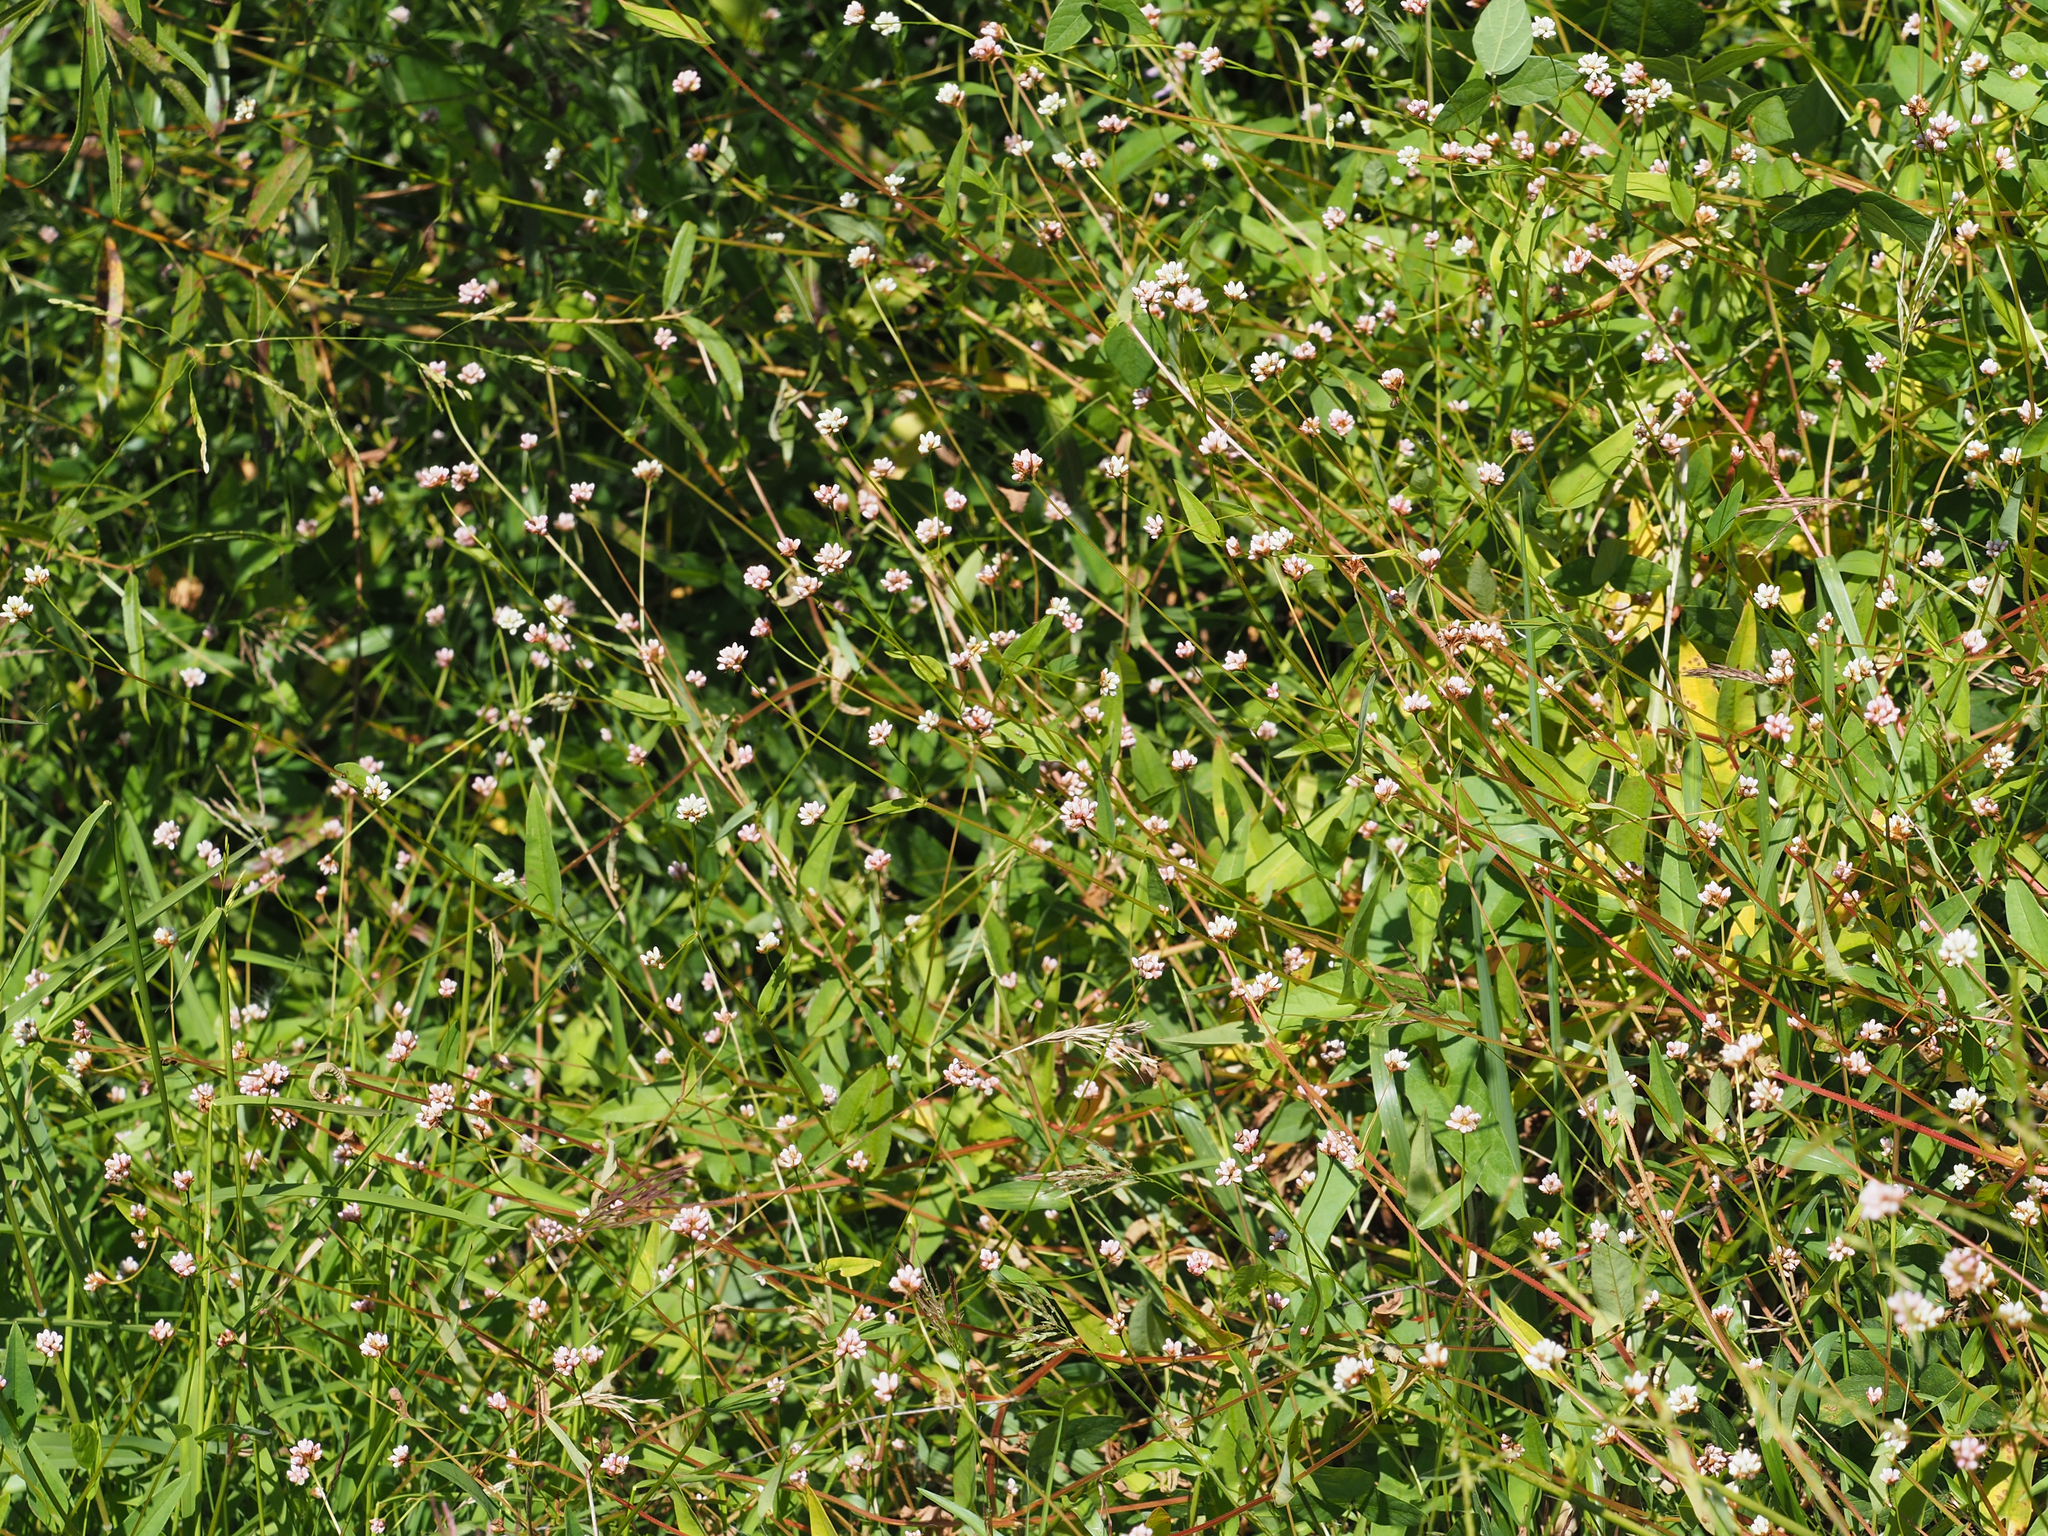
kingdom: Plantae
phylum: Tracheophyta
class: Magnoliopsida
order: Caryophyllales
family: Polygonaceae
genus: Persicaria
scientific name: Persicaria sagittata
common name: American tearthumb
